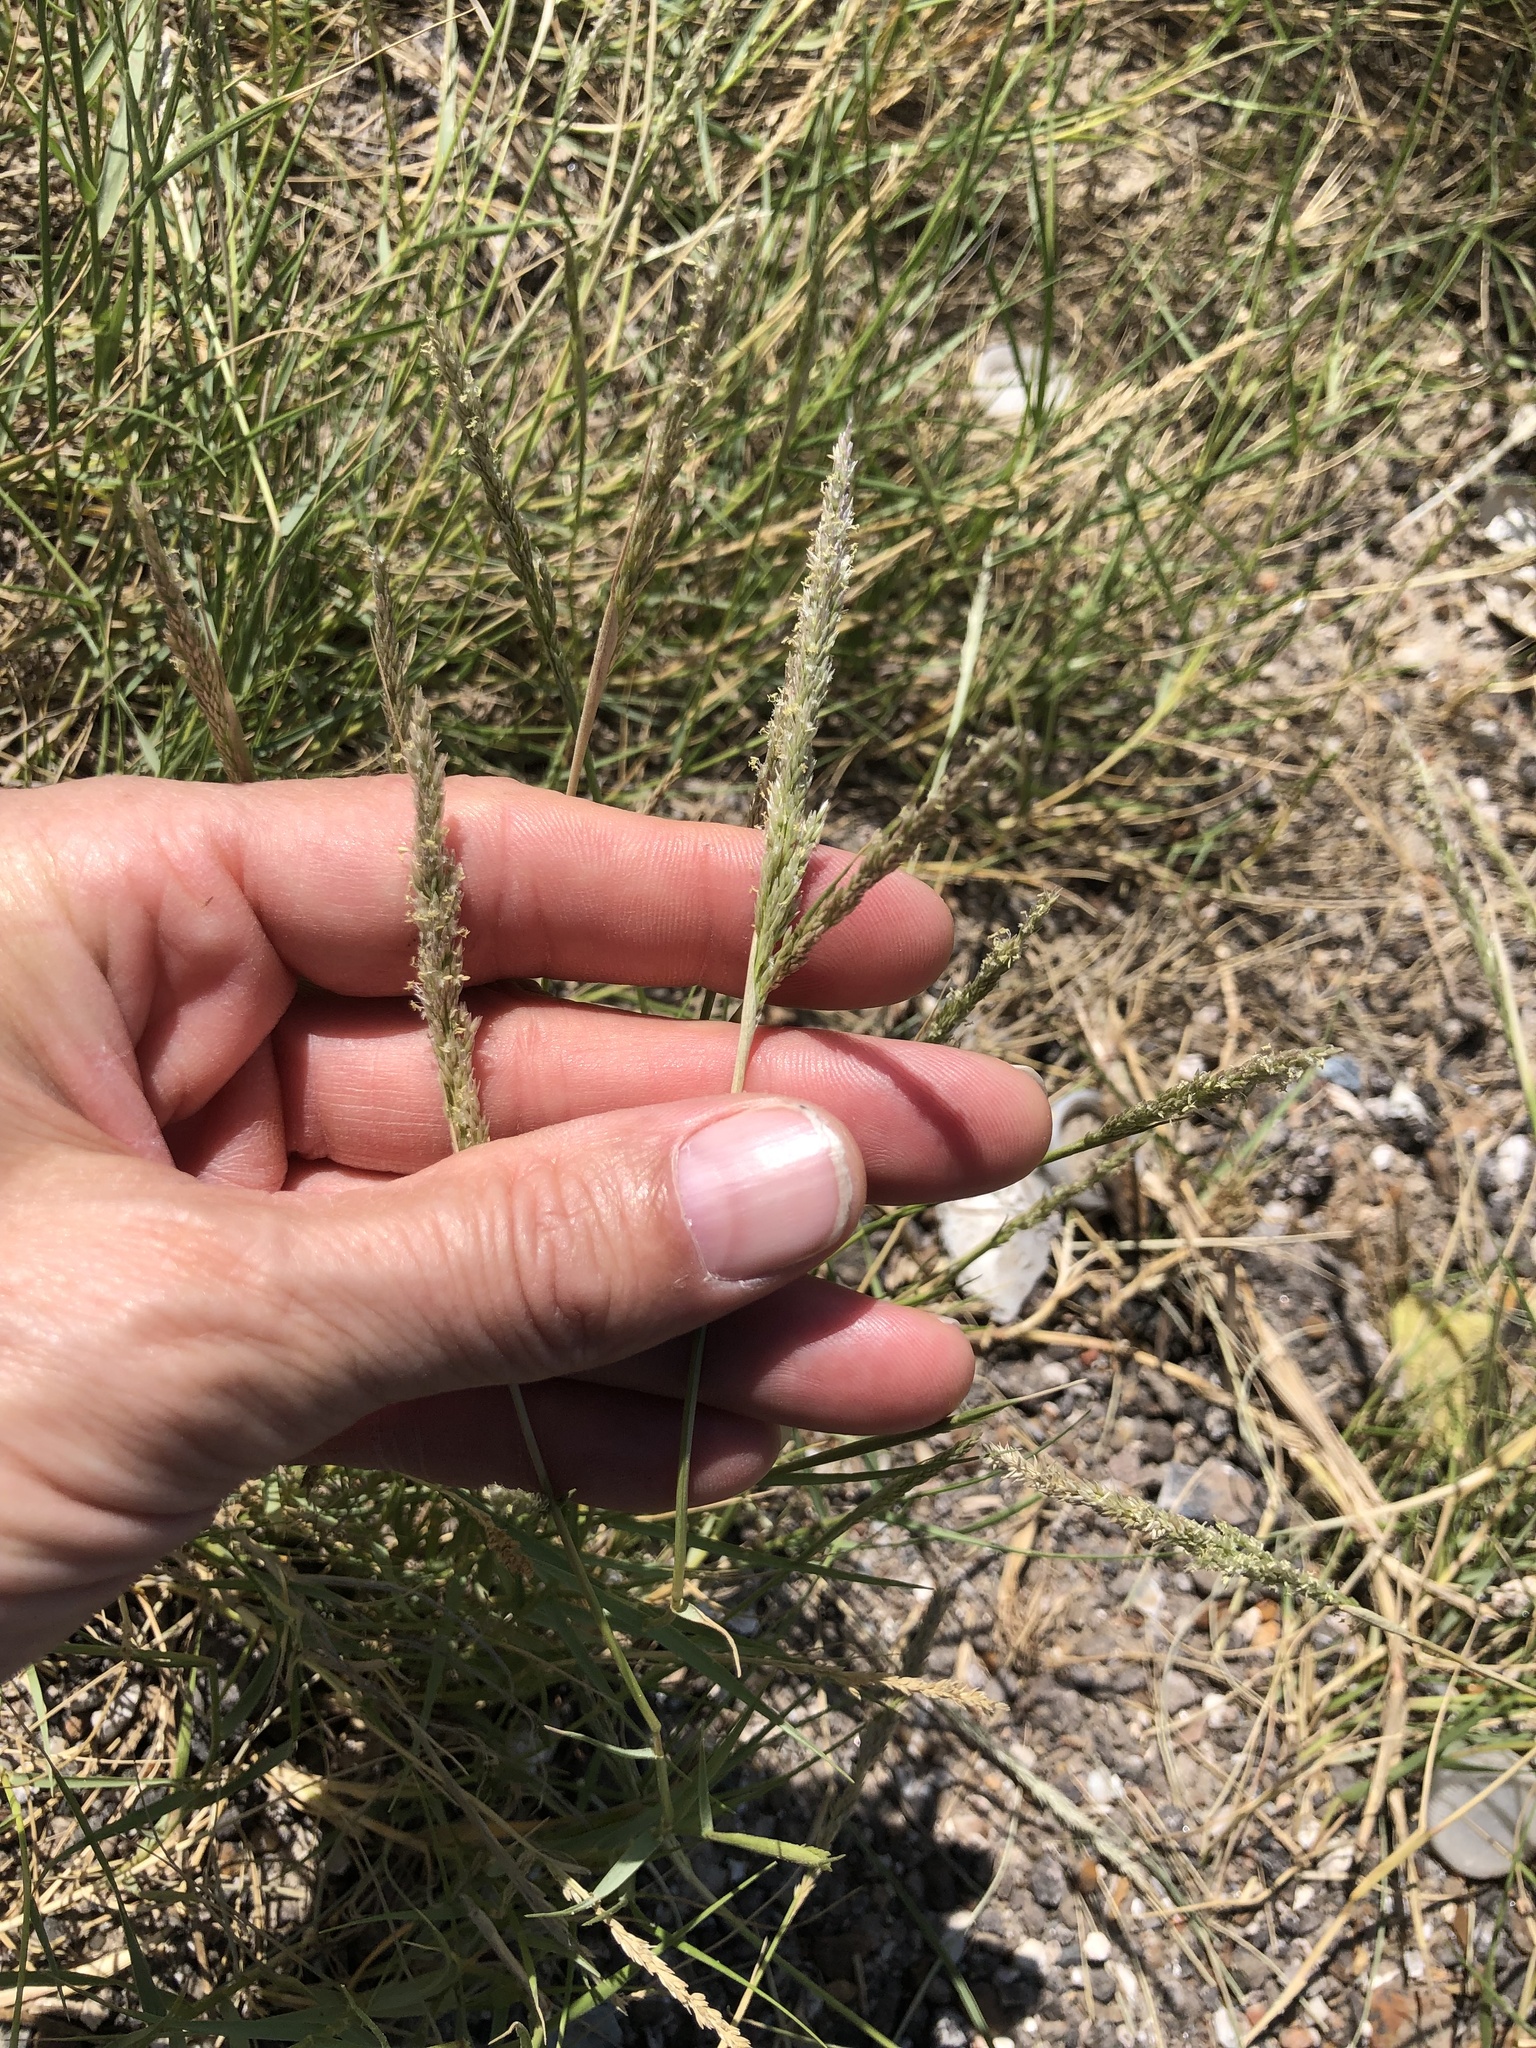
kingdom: Plantae
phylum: Tracheophyta
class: Liliopsida
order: Poales
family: Poaceae
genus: Sporobolus
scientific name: Sporobolus virginicus
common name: Beach dropseed
